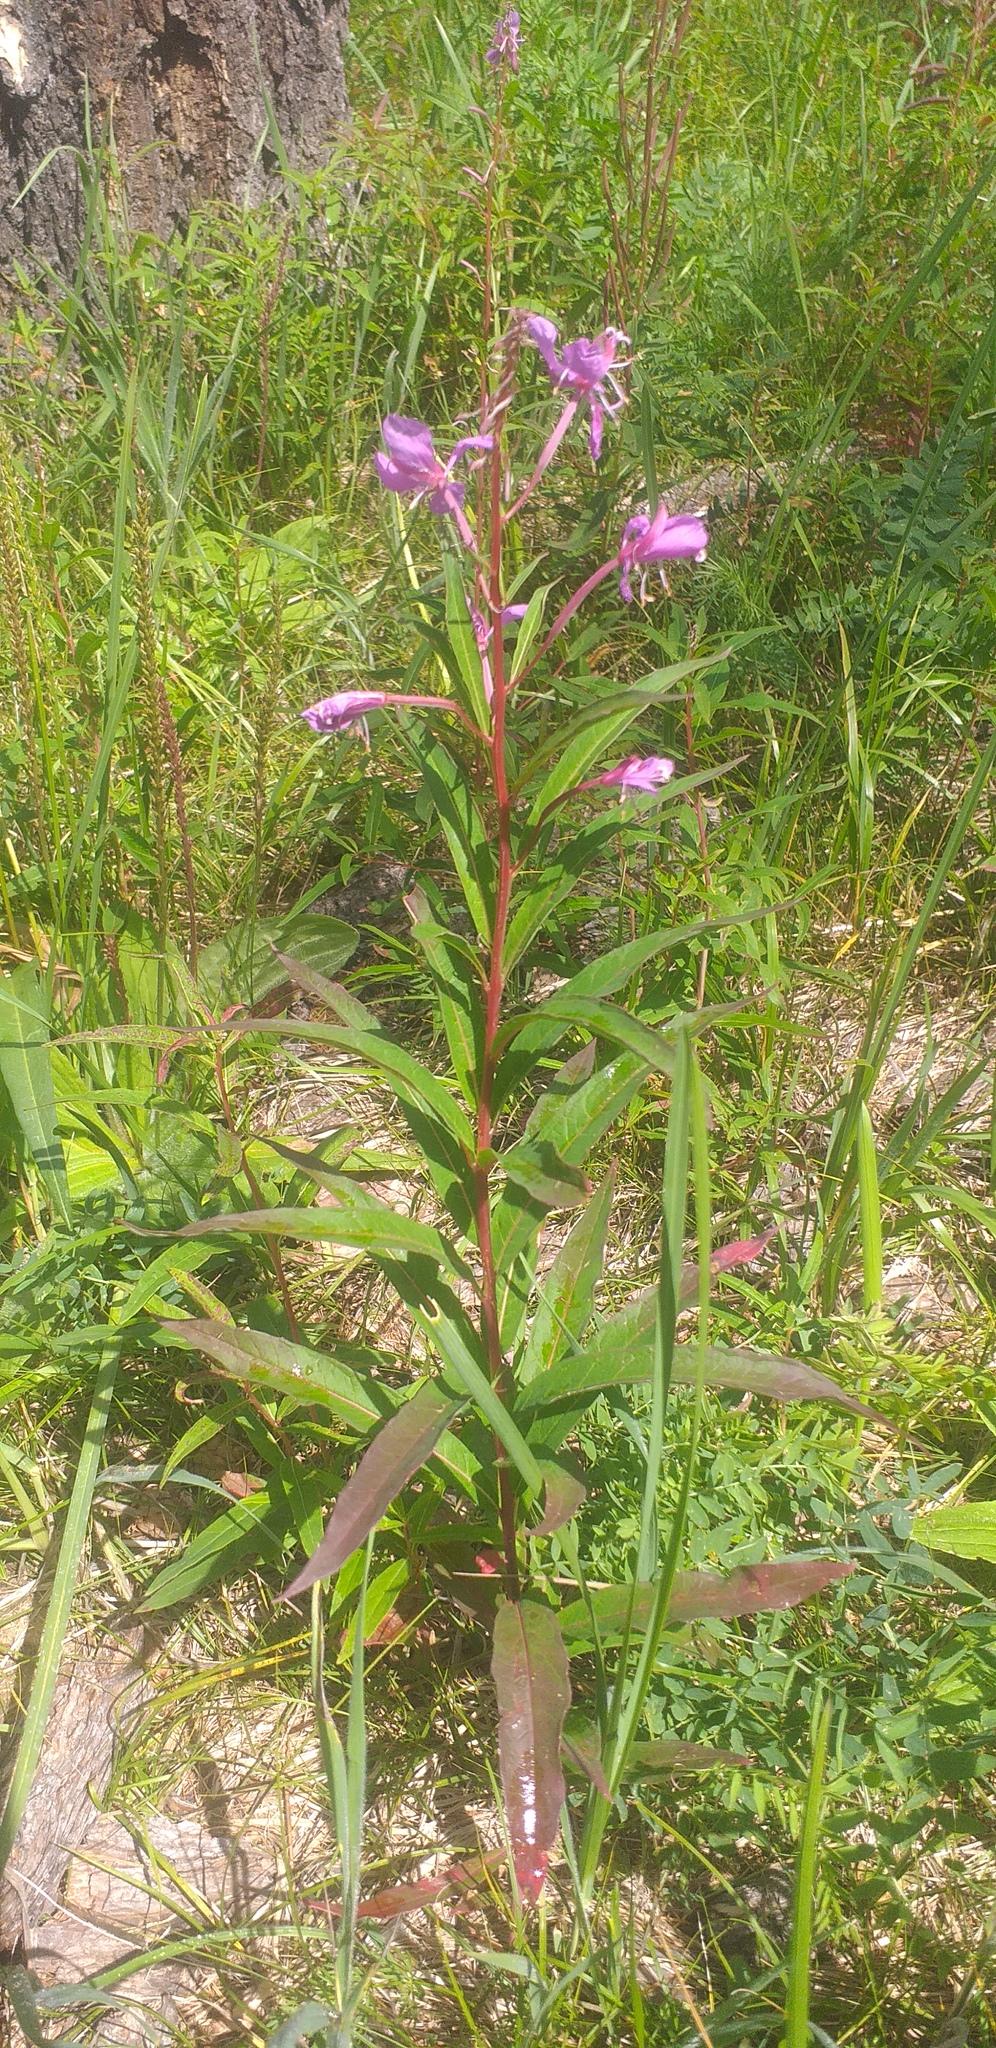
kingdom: Plantae
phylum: Tracheophyta
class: Magnoliopsida
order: Myrtales
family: Onagraceae
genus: Chamaenerion
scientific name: Chamaenerion angustifolium
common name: Fireweed
